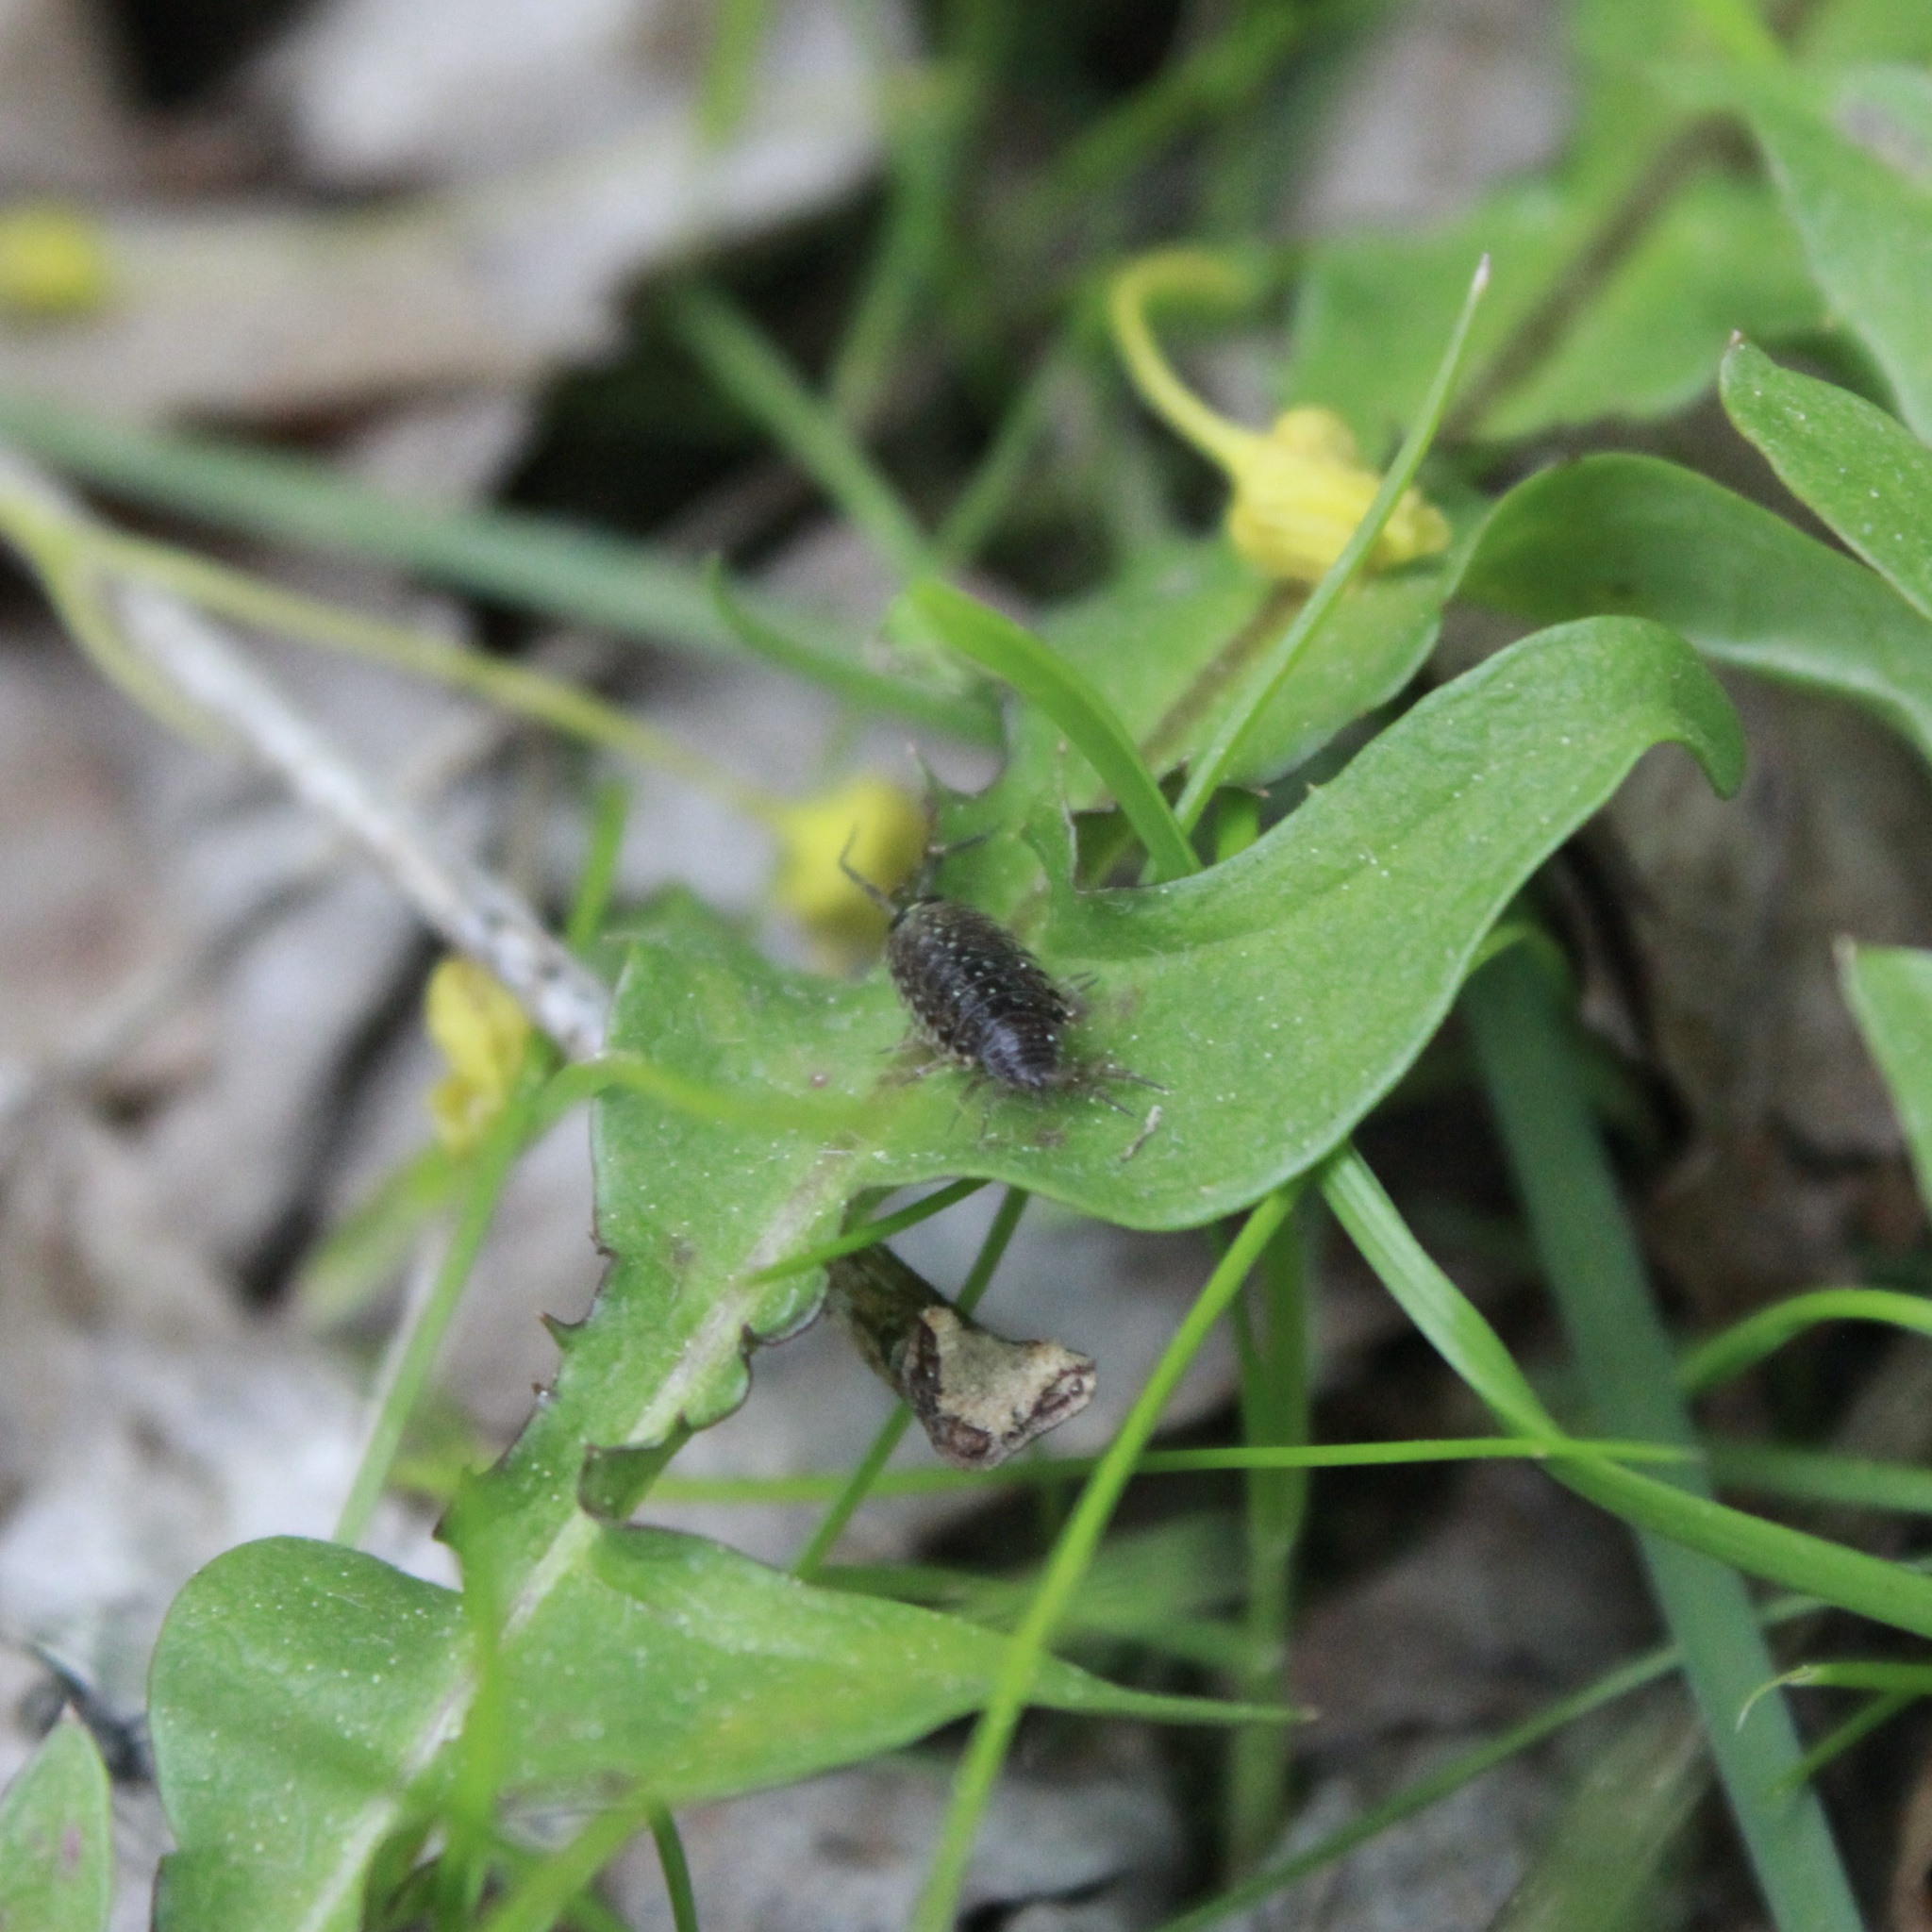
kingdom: Animalia
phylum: Arthropoda
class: Malacostraca
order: Isopoda
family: Philosciidae
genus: Philoscia
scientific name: Philoscia muscorum
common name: Common striped woodlouse
